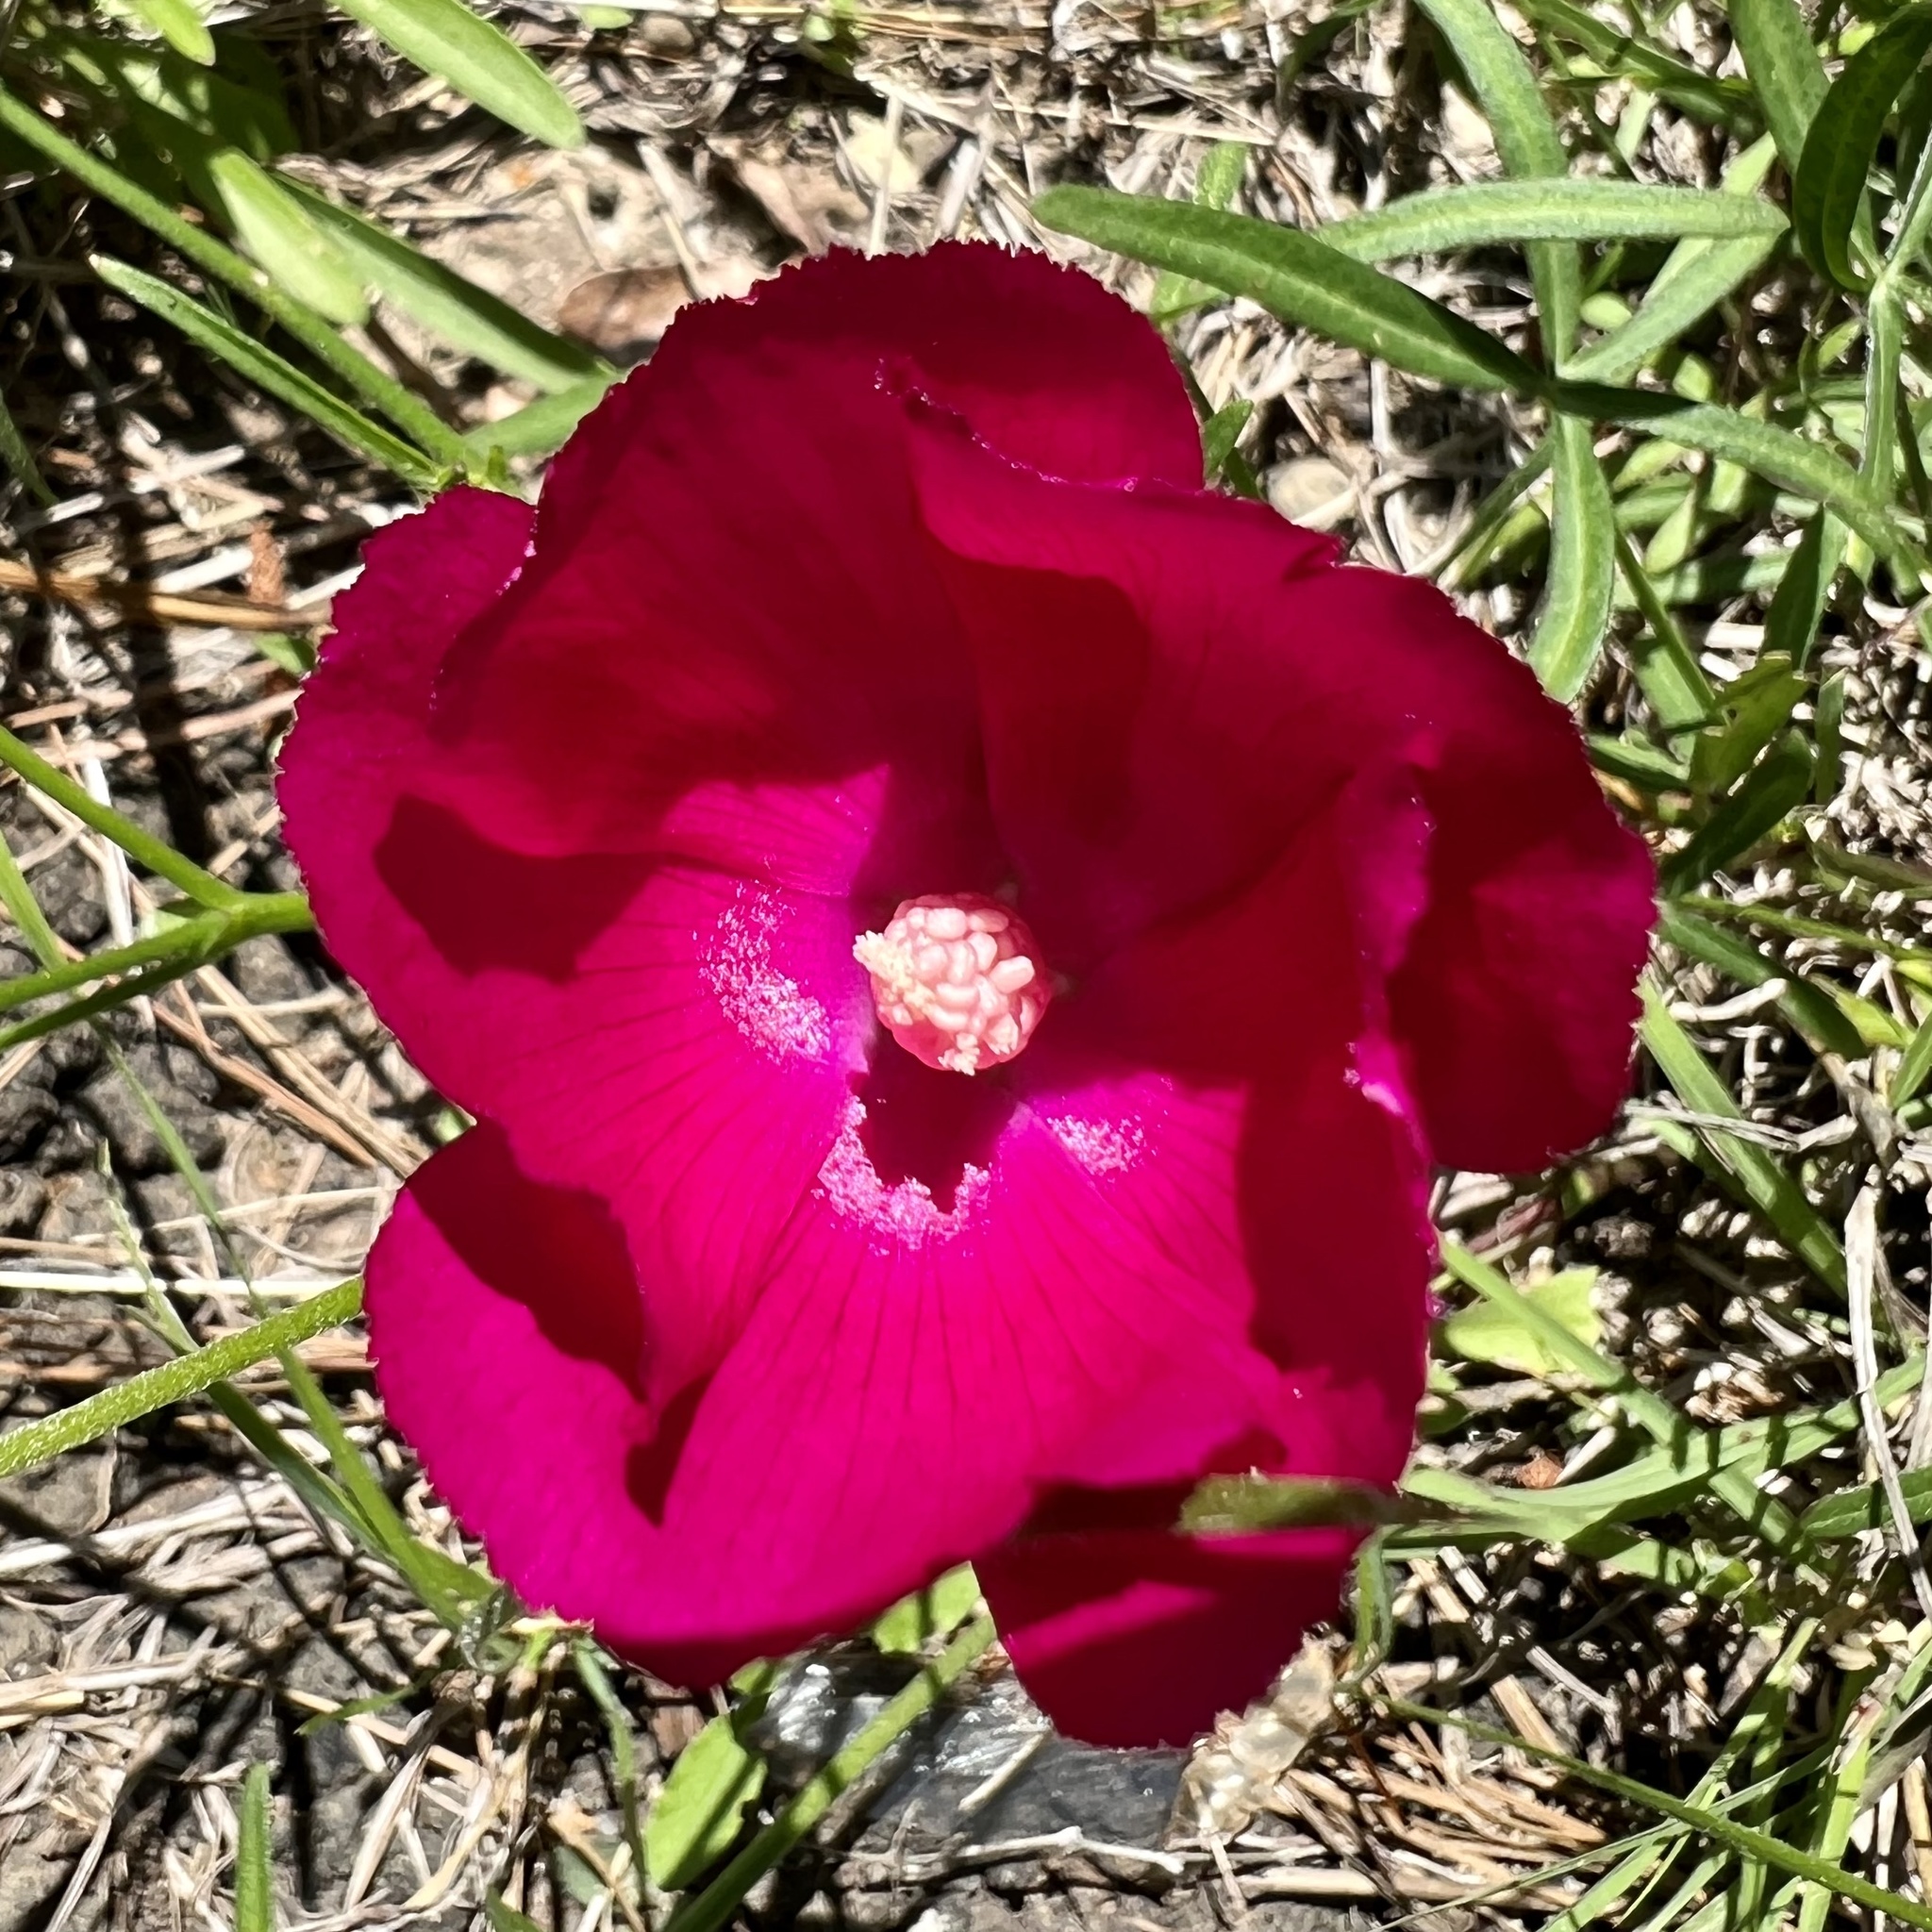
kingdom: Plantae
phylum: Tracheophyta
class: Magnoliopsida
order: Malvales
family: Malvaceae
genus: Callirhoe
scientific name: Callirhoe papaver
